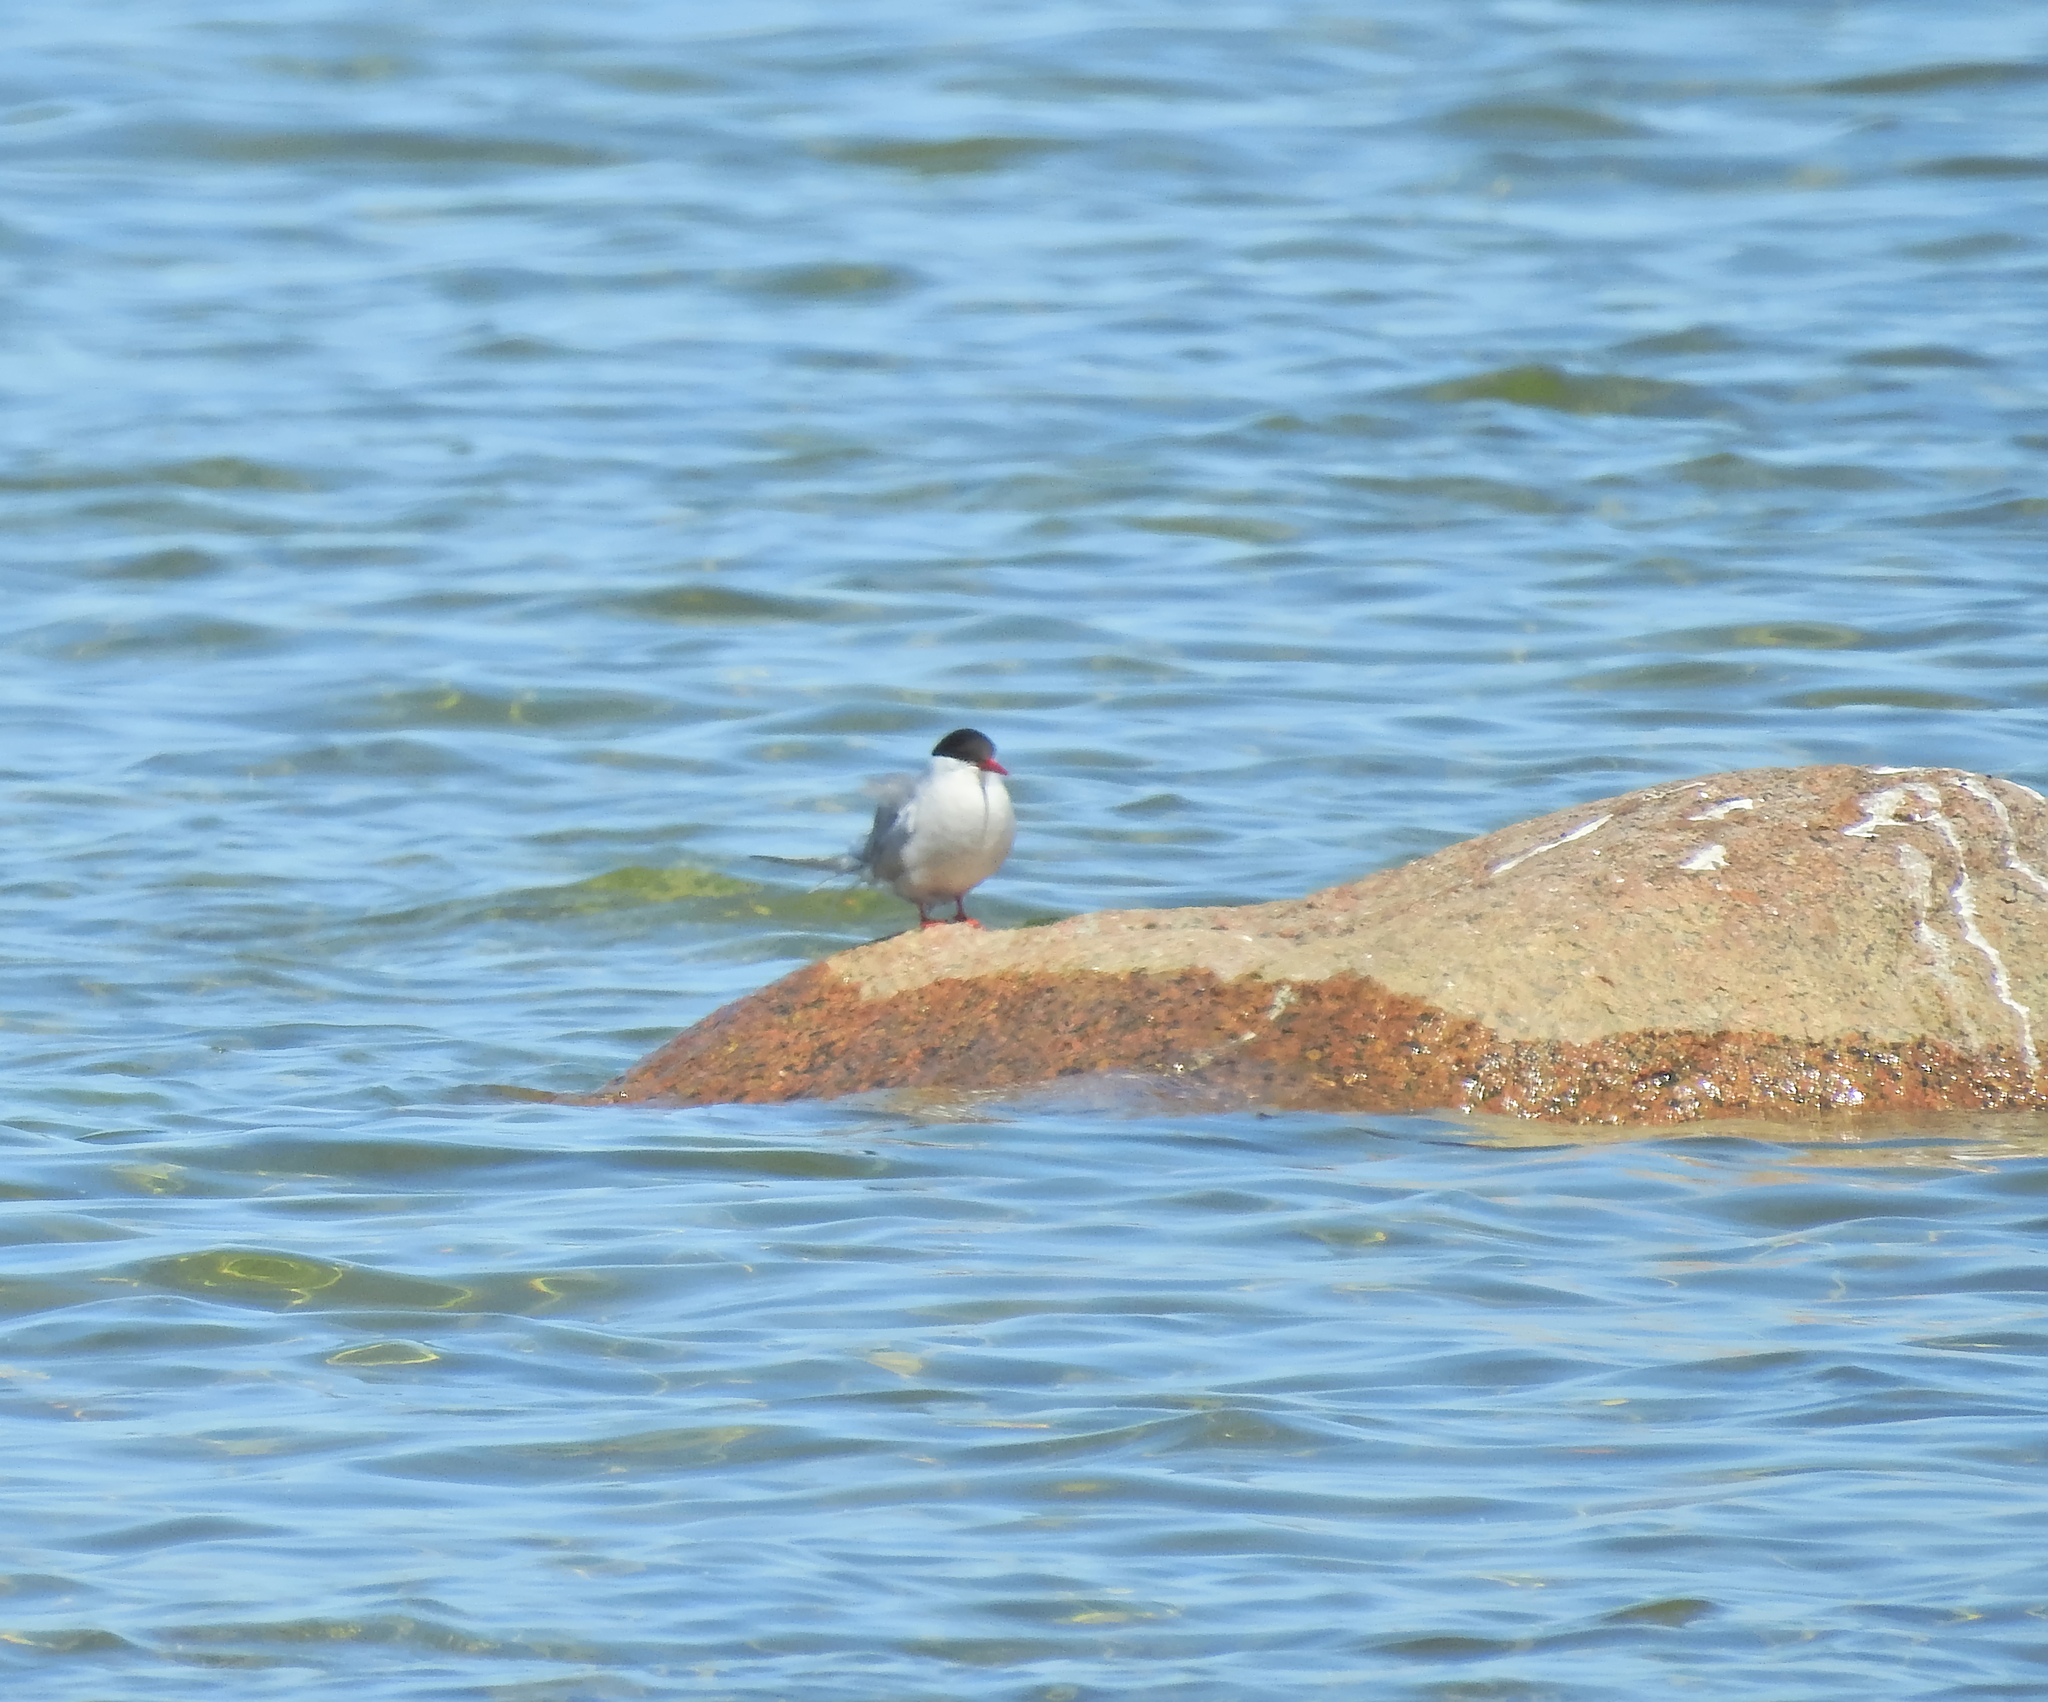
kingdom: Animalia
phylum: Chordata
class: Aves
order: Charadriiformes
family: Laridae
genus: Sterna
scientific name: Sterna paradisaea
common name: Arctic tern
